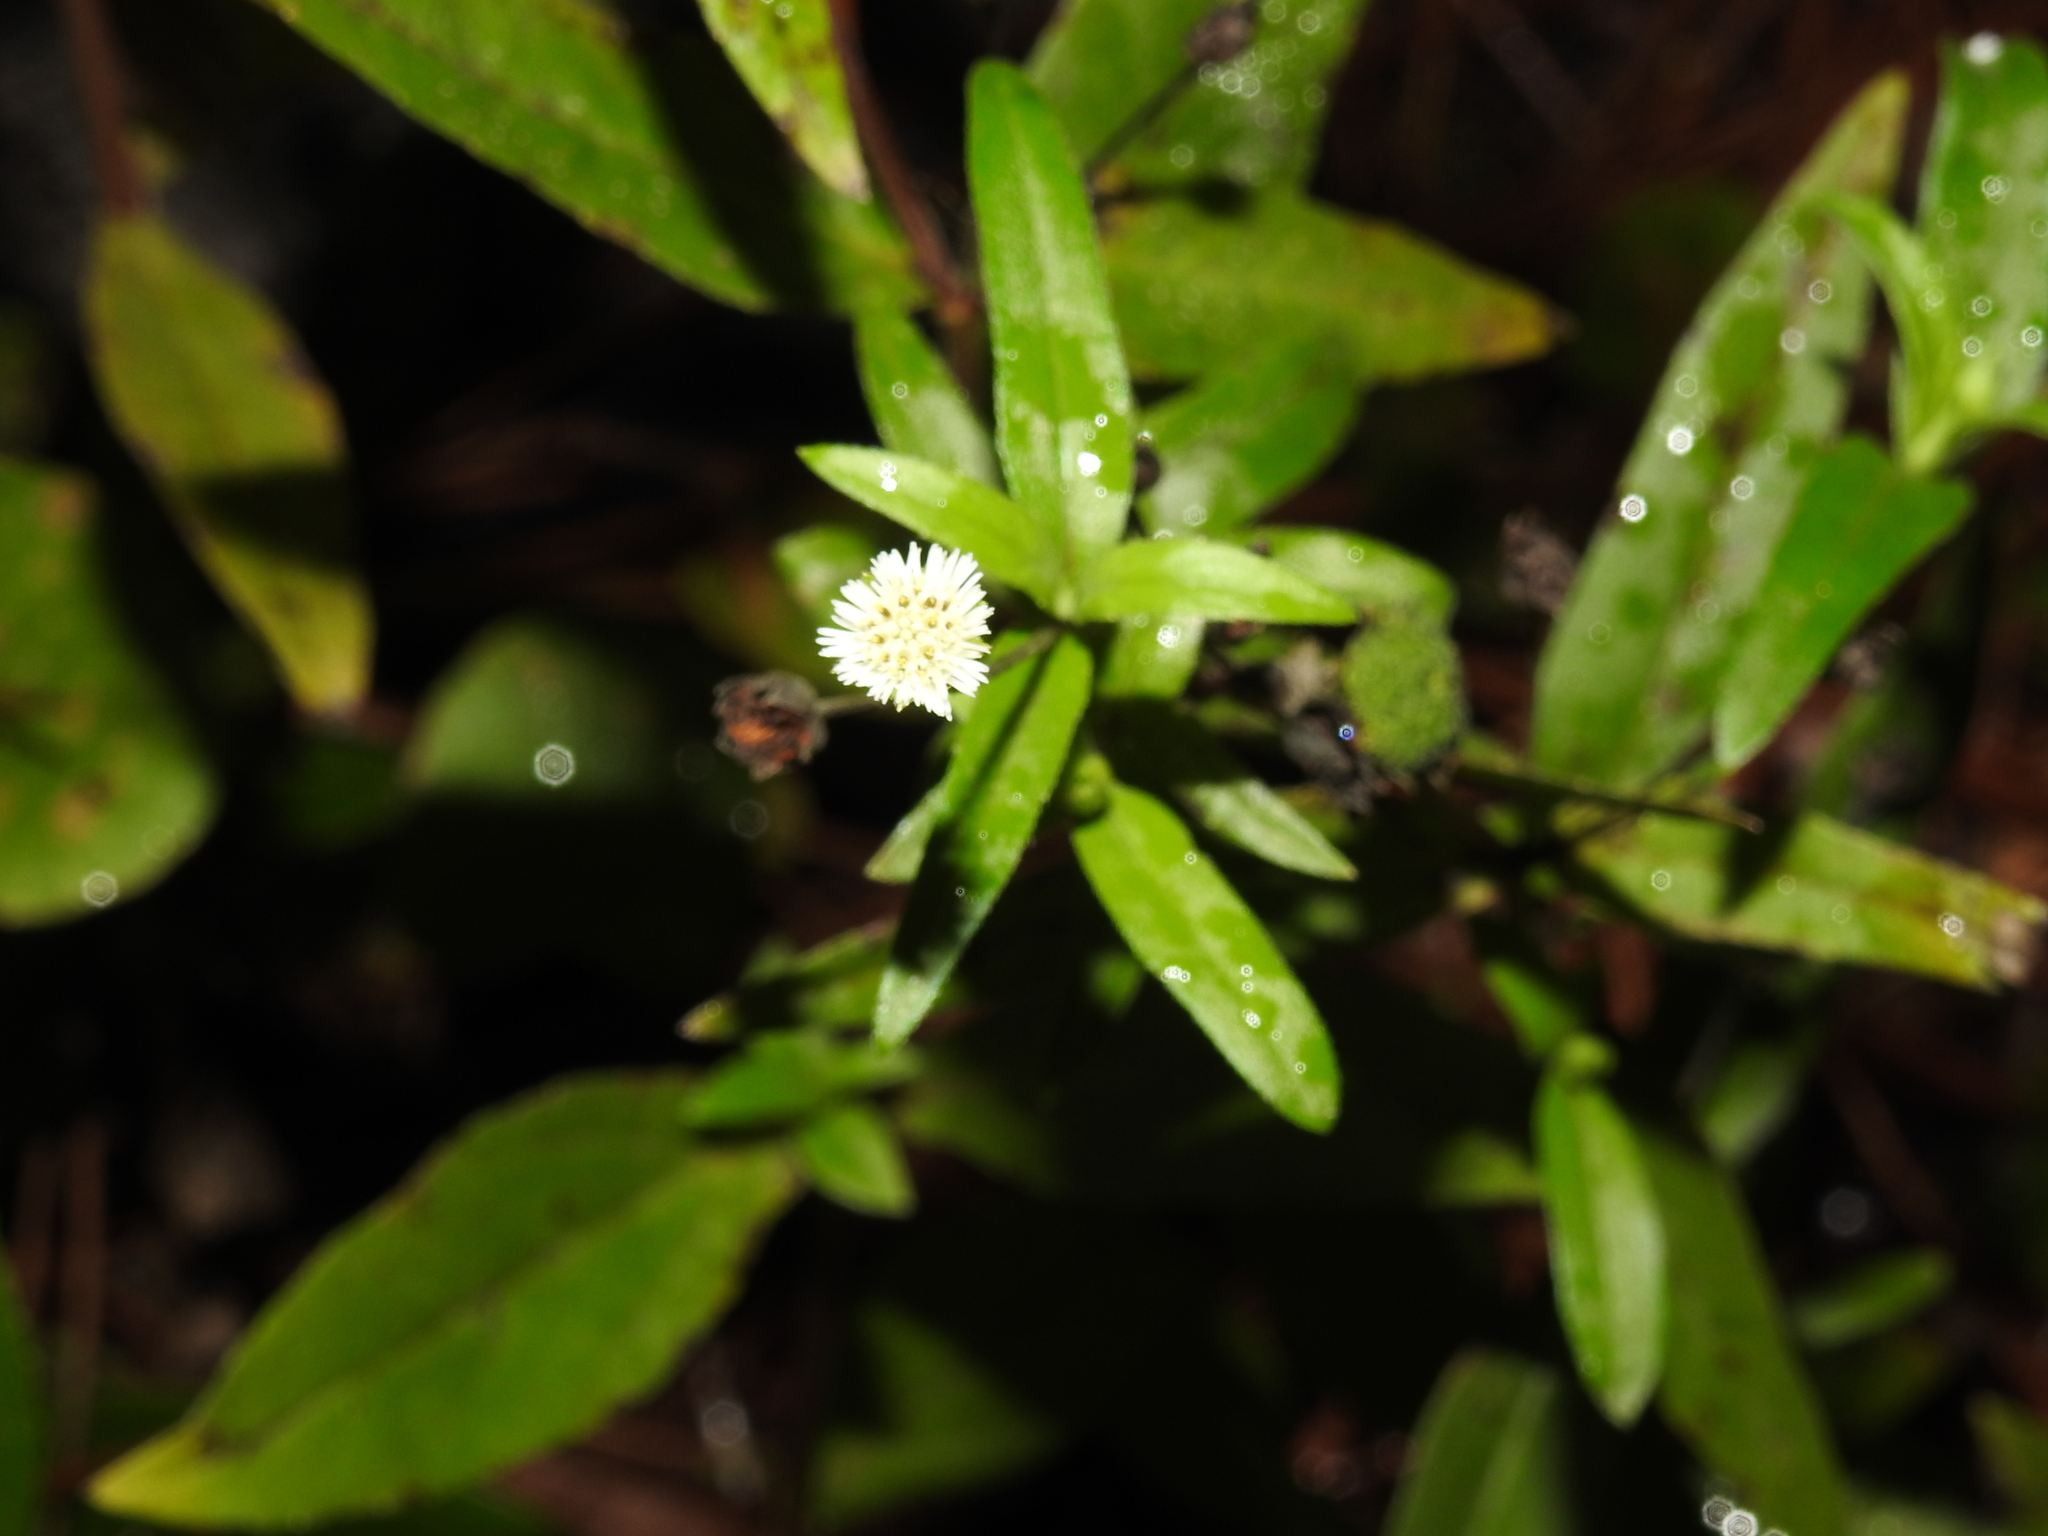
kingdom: Plantae
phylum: Tracheophyta
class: Magnoliopsida
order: Asterales
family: Asteraceae
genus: Eclipta
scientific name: Eclipta prostrata
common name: False daisy
